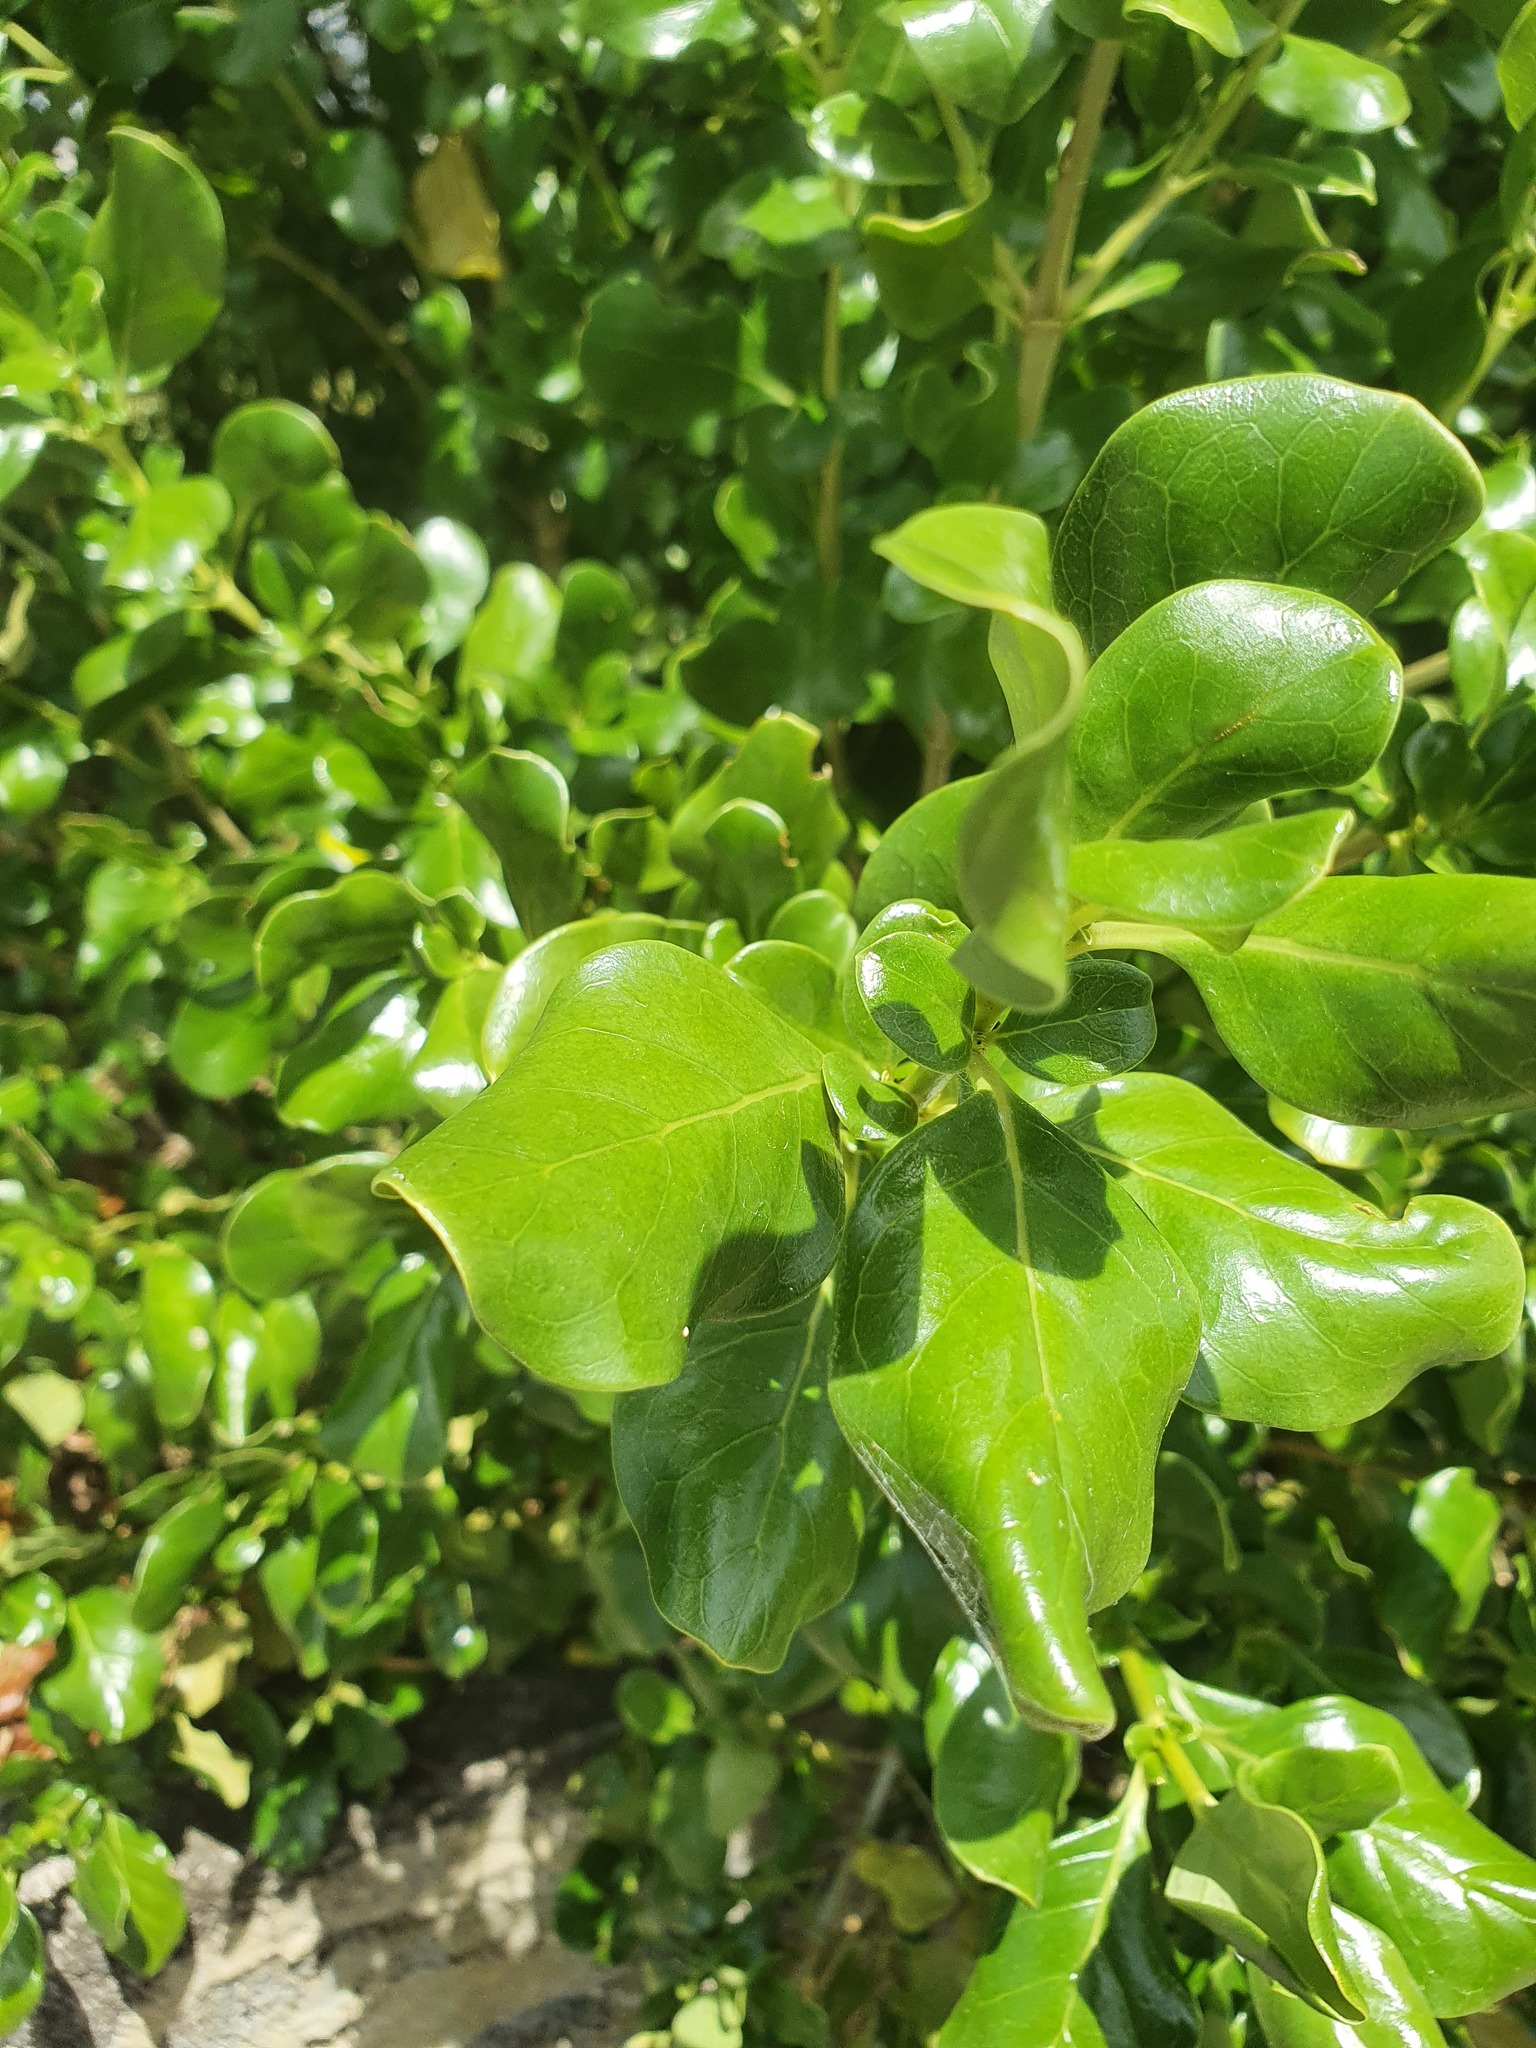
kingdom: Plantae
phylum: Tracheophyta
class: Magnoliopsida
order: Gentianales
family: Rubiaceae
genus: Coprosma
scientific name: Coprosma repens
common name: Tree bedstraw
